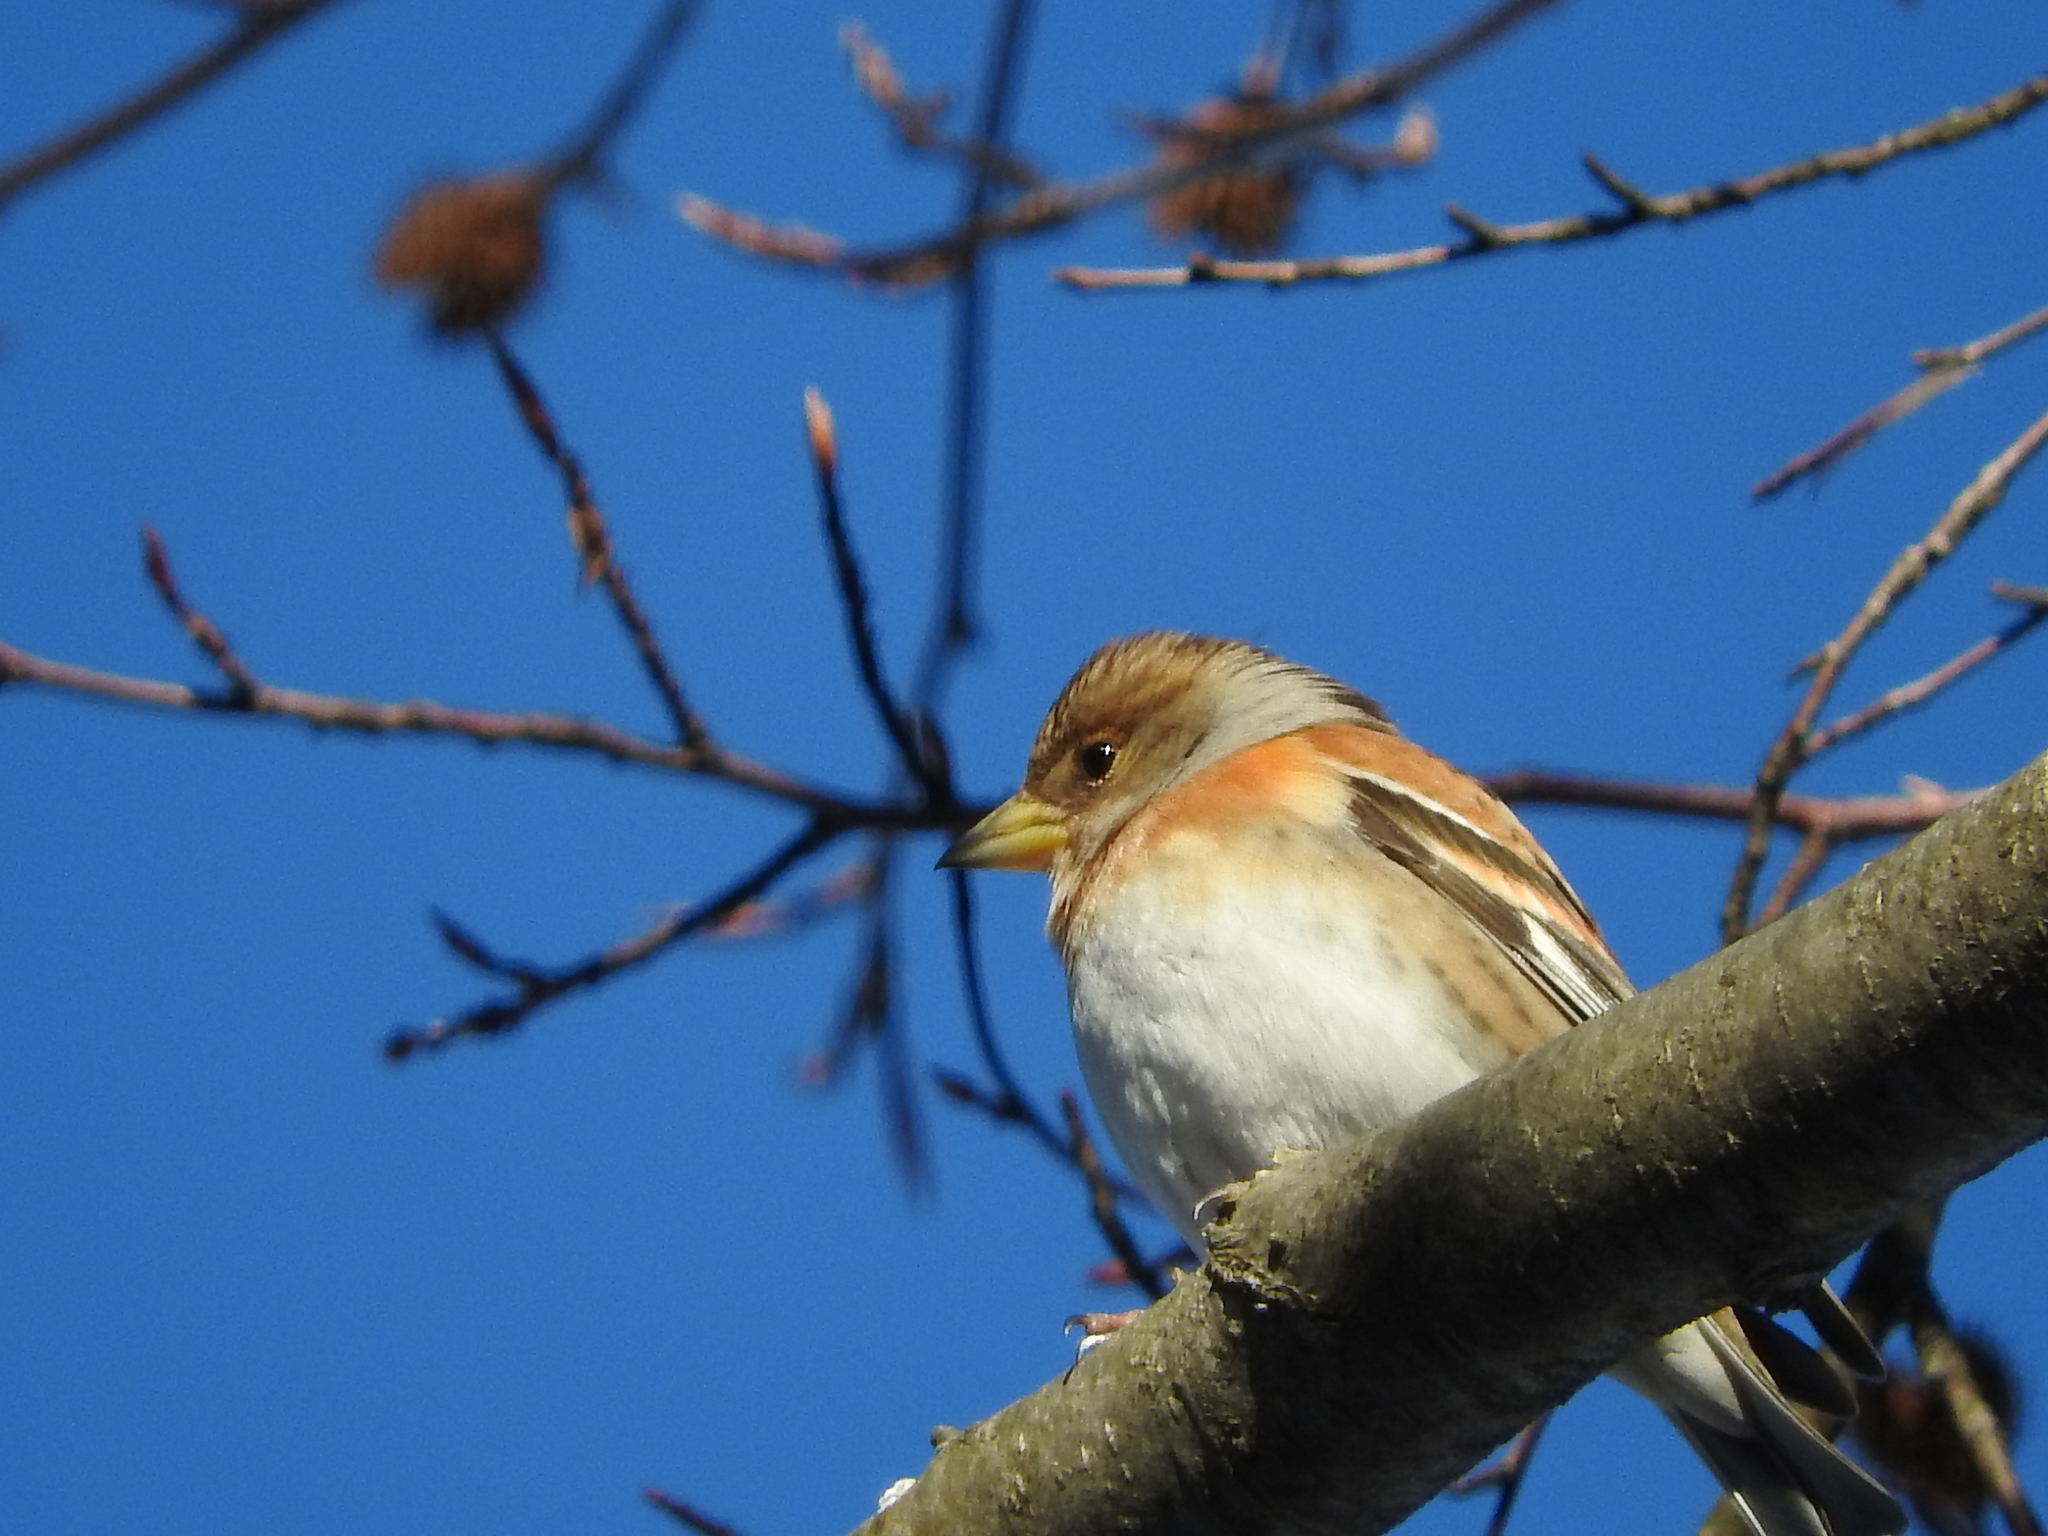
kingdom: Animalia
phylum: Chordata
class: Aves
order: Passeriformes
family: Fringillidae
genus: Fringilla
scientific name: Fringilla montifringilla
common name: Brambling
